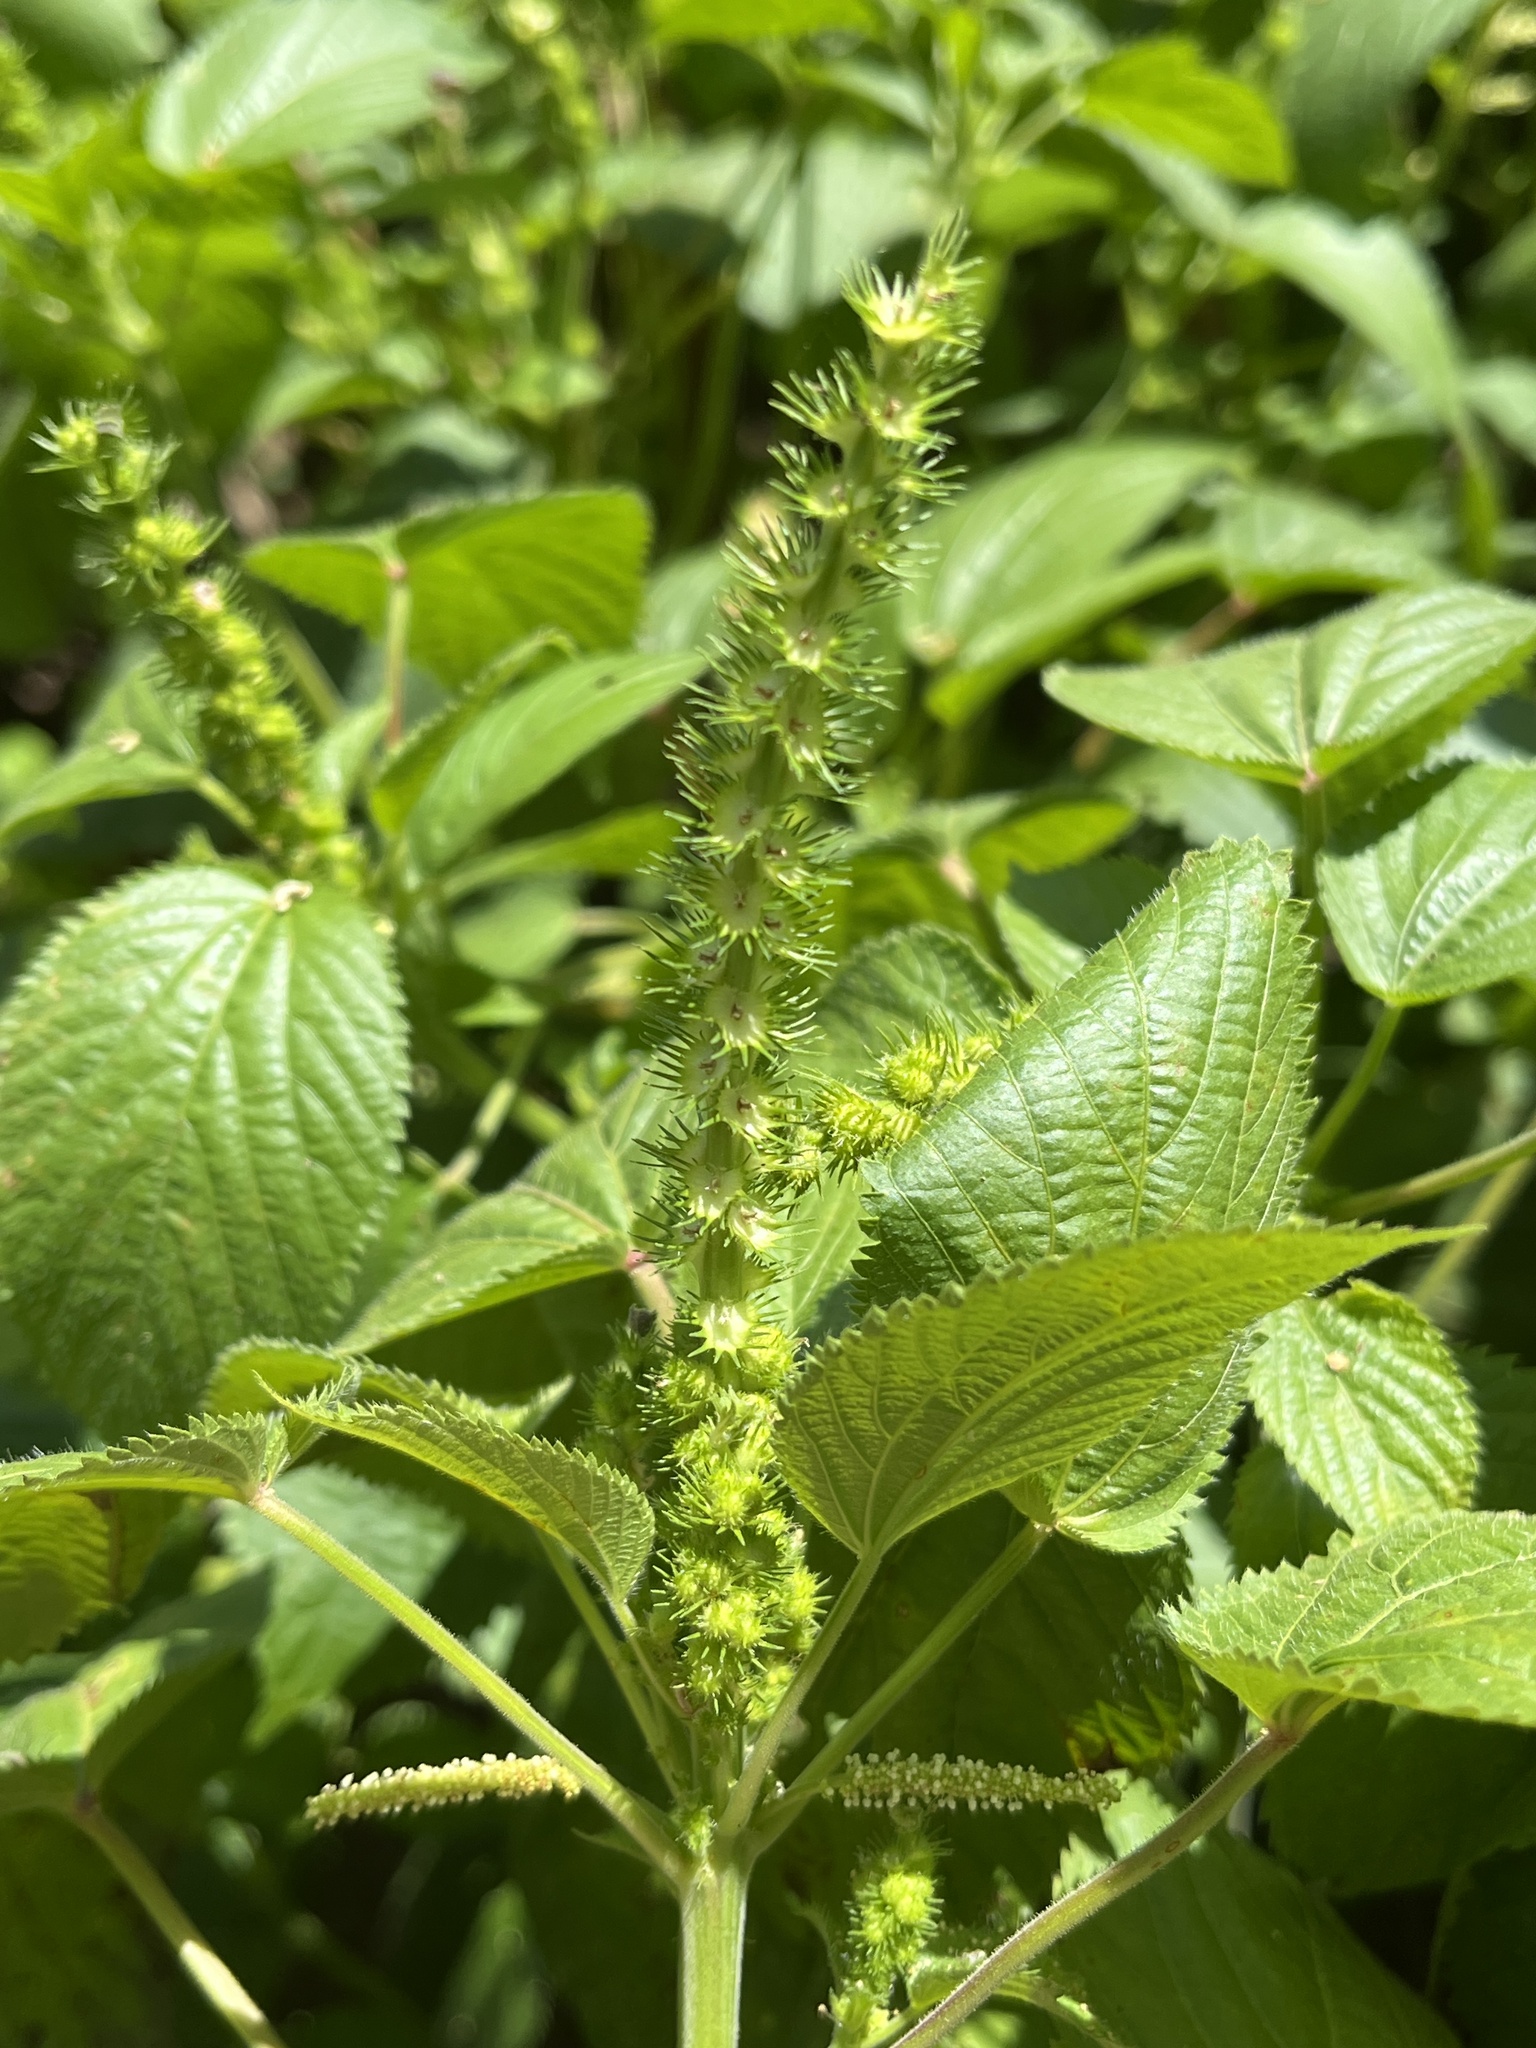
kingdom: Plantae
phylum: Tracheophyta
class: Magnoliopsida
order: Malpighiales
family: Euphorbiaceae
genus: Acalypha
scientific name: Acalypha ostryifolia
